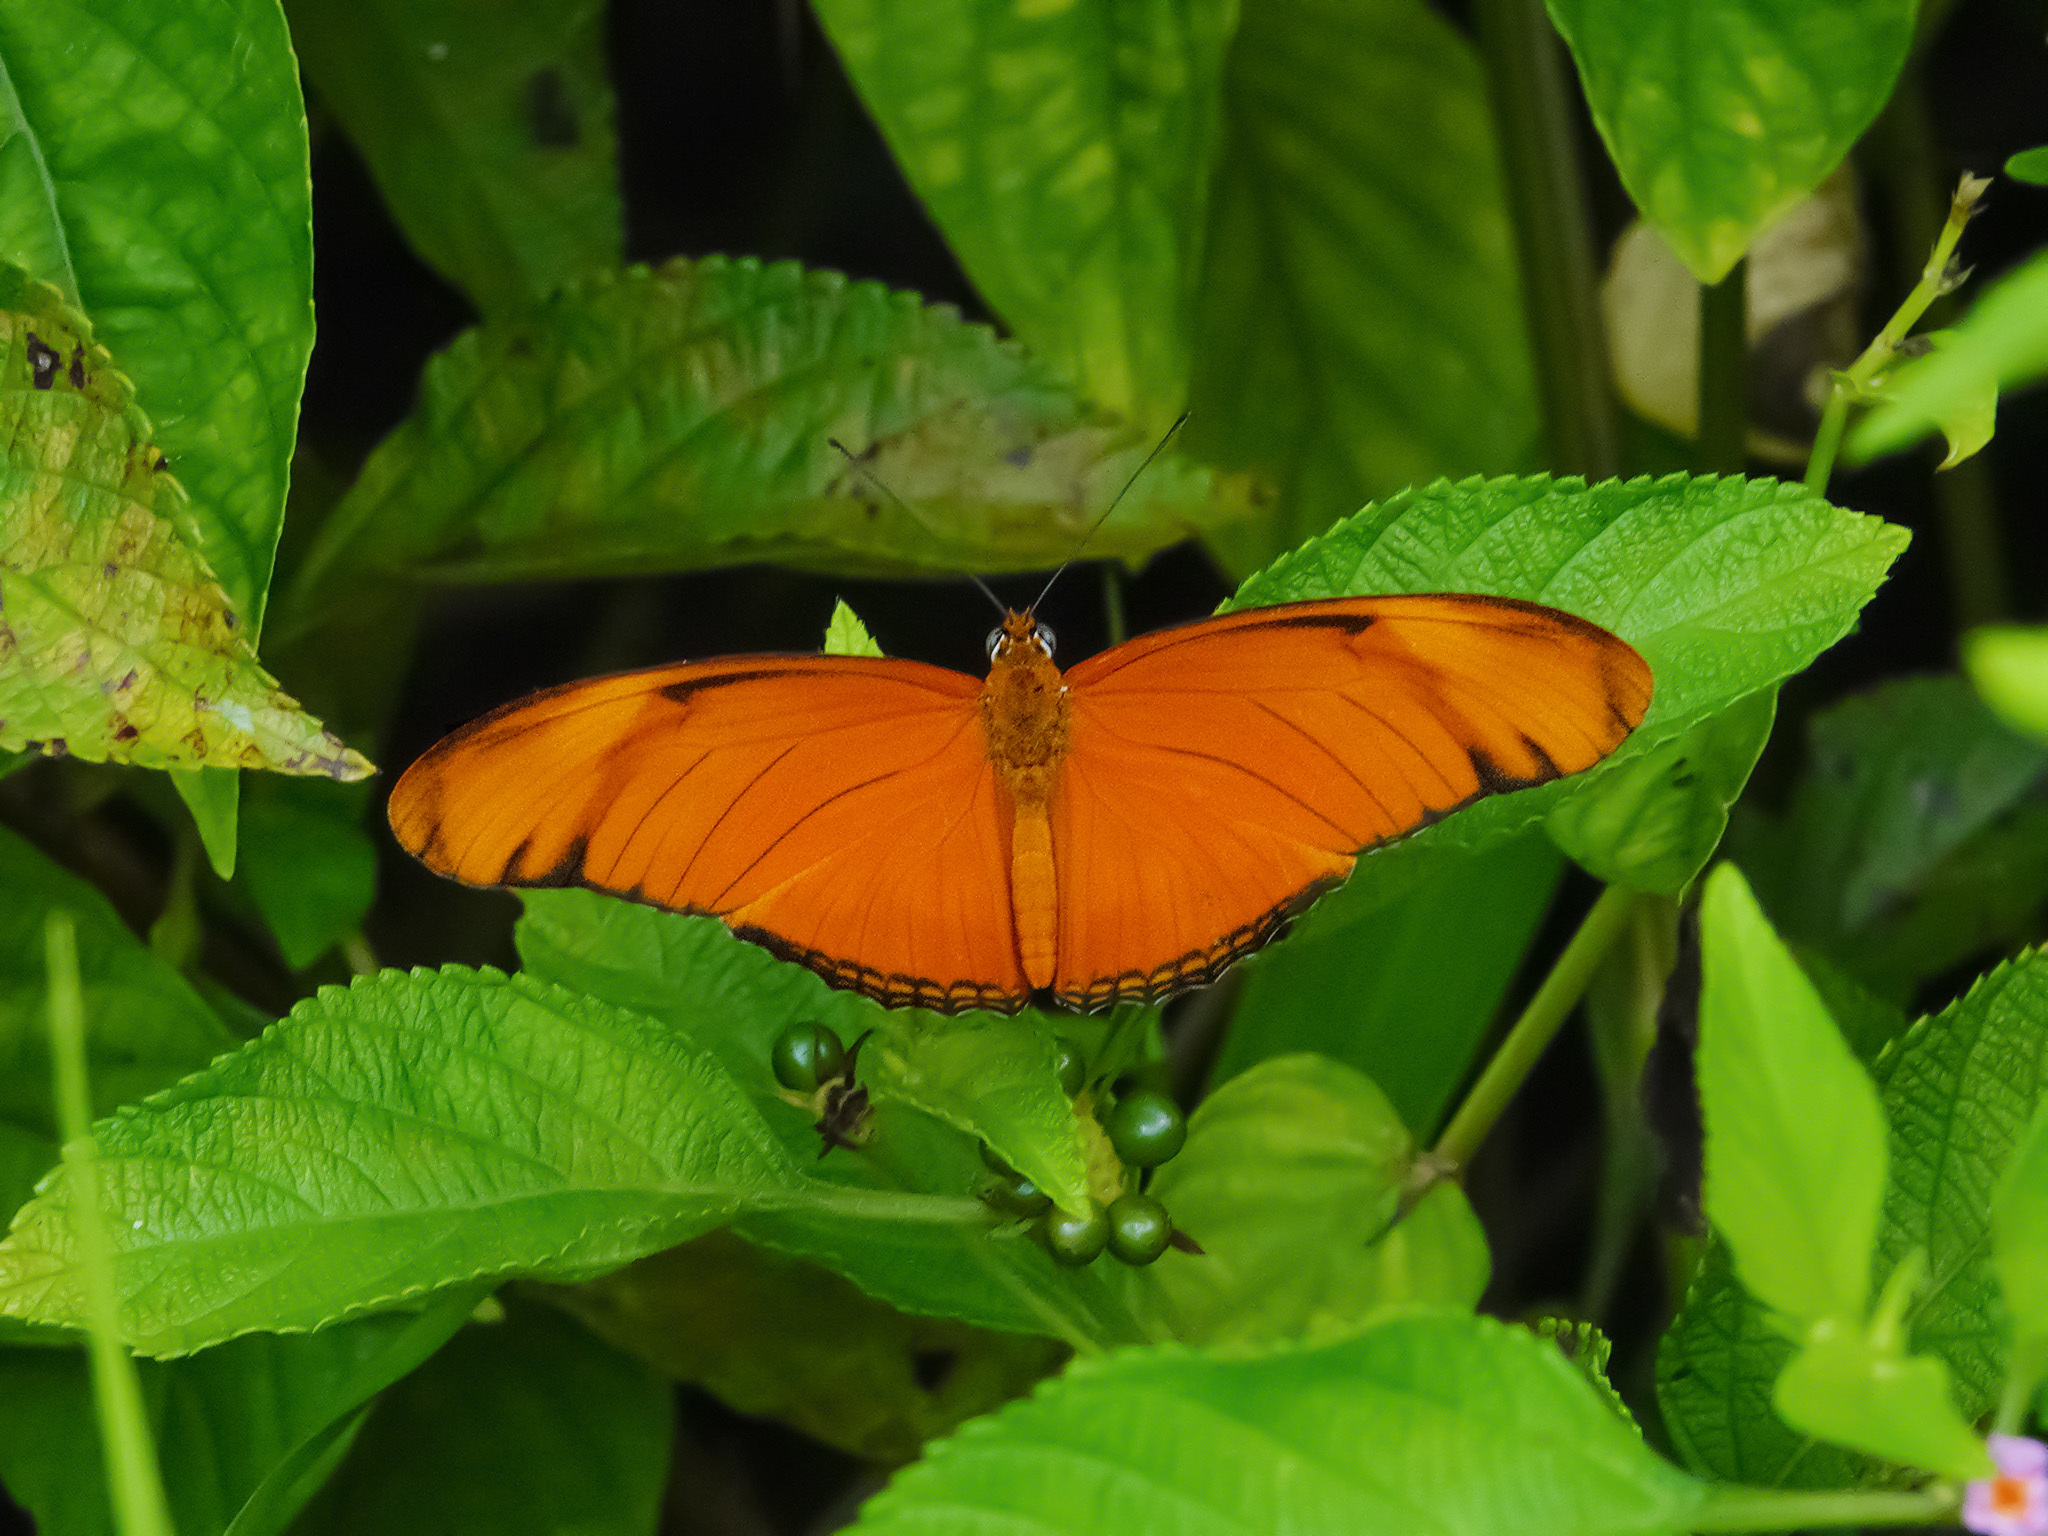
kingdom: Animalia
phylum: Arthropoda
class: Insecta
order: Lepidoptera
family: Nymphalidae
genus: Dryas
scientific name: Dryas iulia
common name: Flambeau
